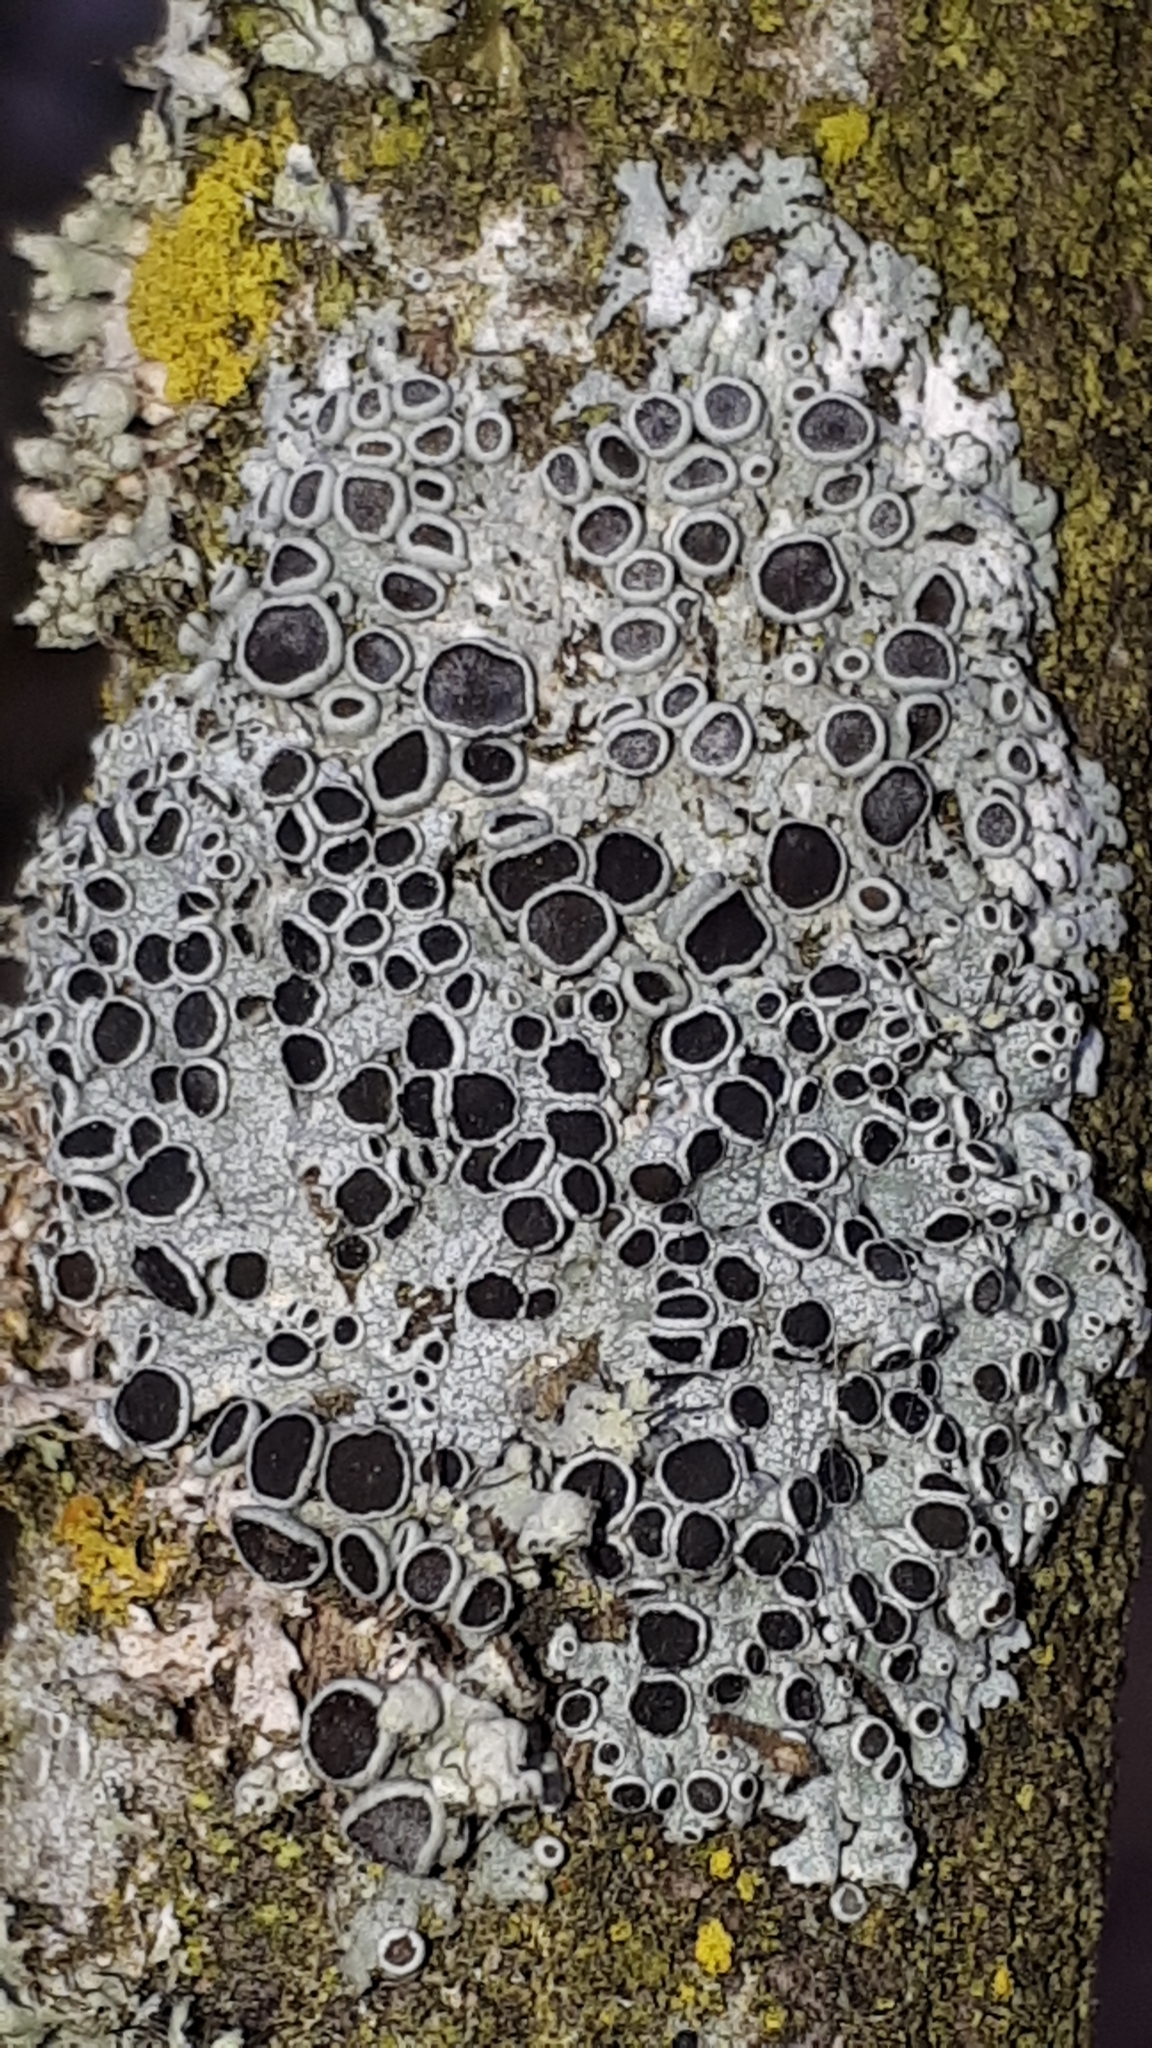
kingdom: Fungi
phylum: Ascomycota
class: Lecanoromycetes
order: Caliciales
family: Physciaceae
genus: Physcia
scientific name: Physcia aipolia
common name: Hoary rosette lichen
